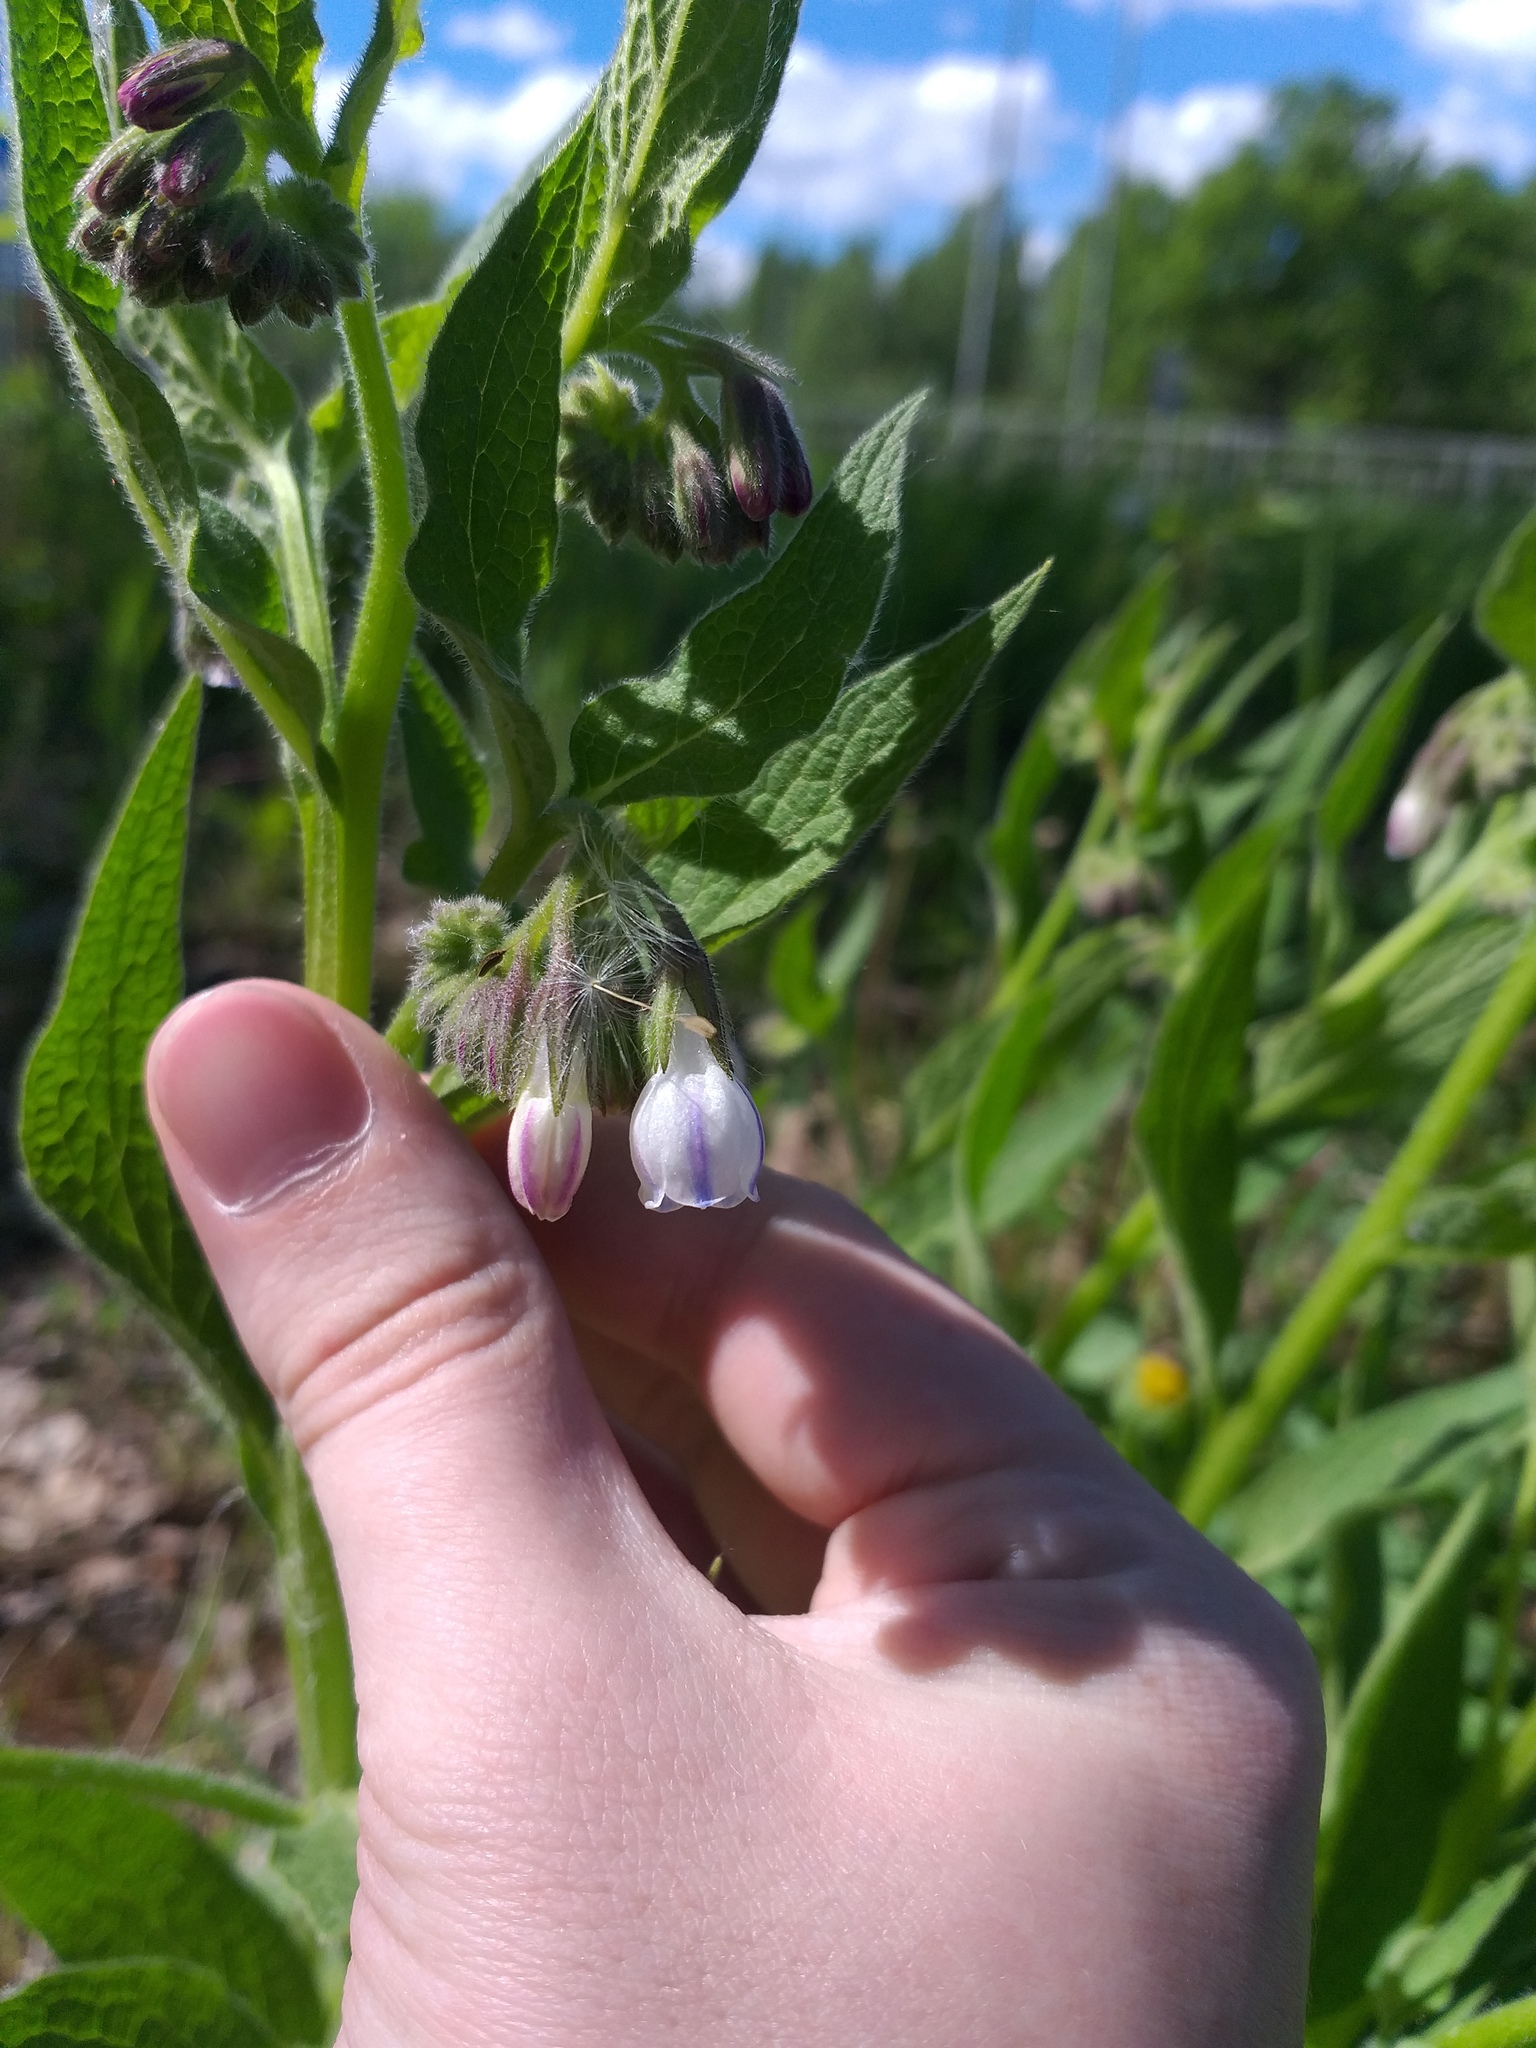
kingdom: Plantae
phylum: Tracheophyta
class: Magnoliopsida
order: Boraginales
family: Boraginaceae
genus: Symphytum
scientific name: Symphytum uplandicum
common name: Russian comfrey
